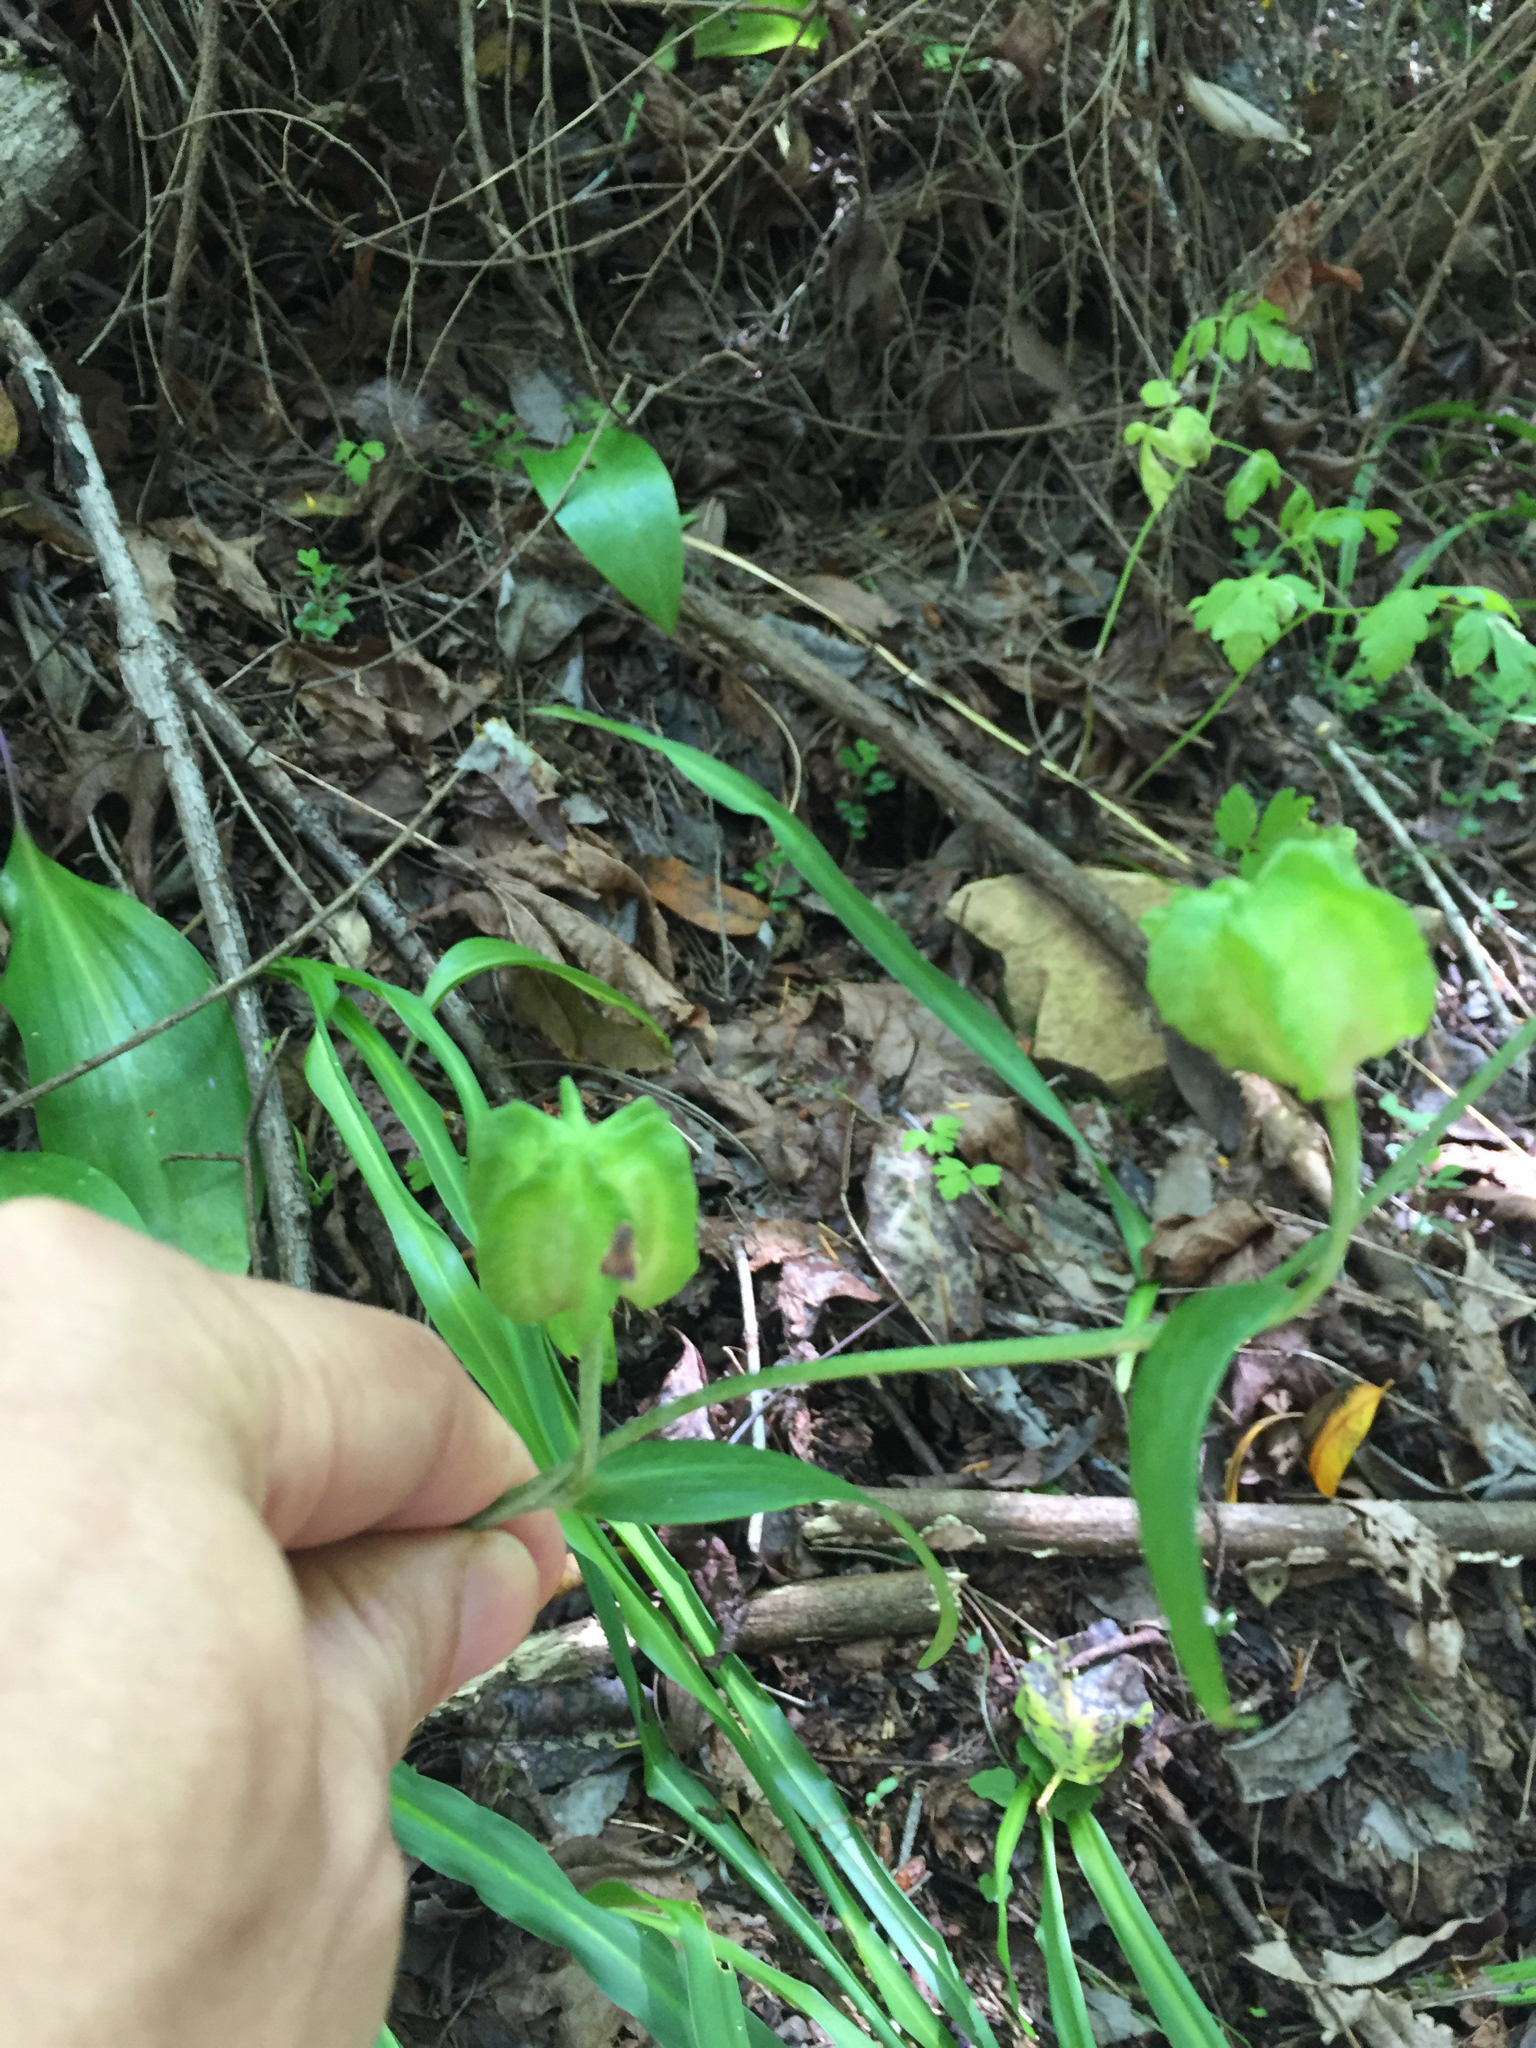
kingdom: Plantae
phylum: Tracheophyta
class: Liliopsida
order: Liliales
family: Liliaceae
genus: Fritillaria
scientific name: Fritillaria affinis
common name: Ojai fritillary
